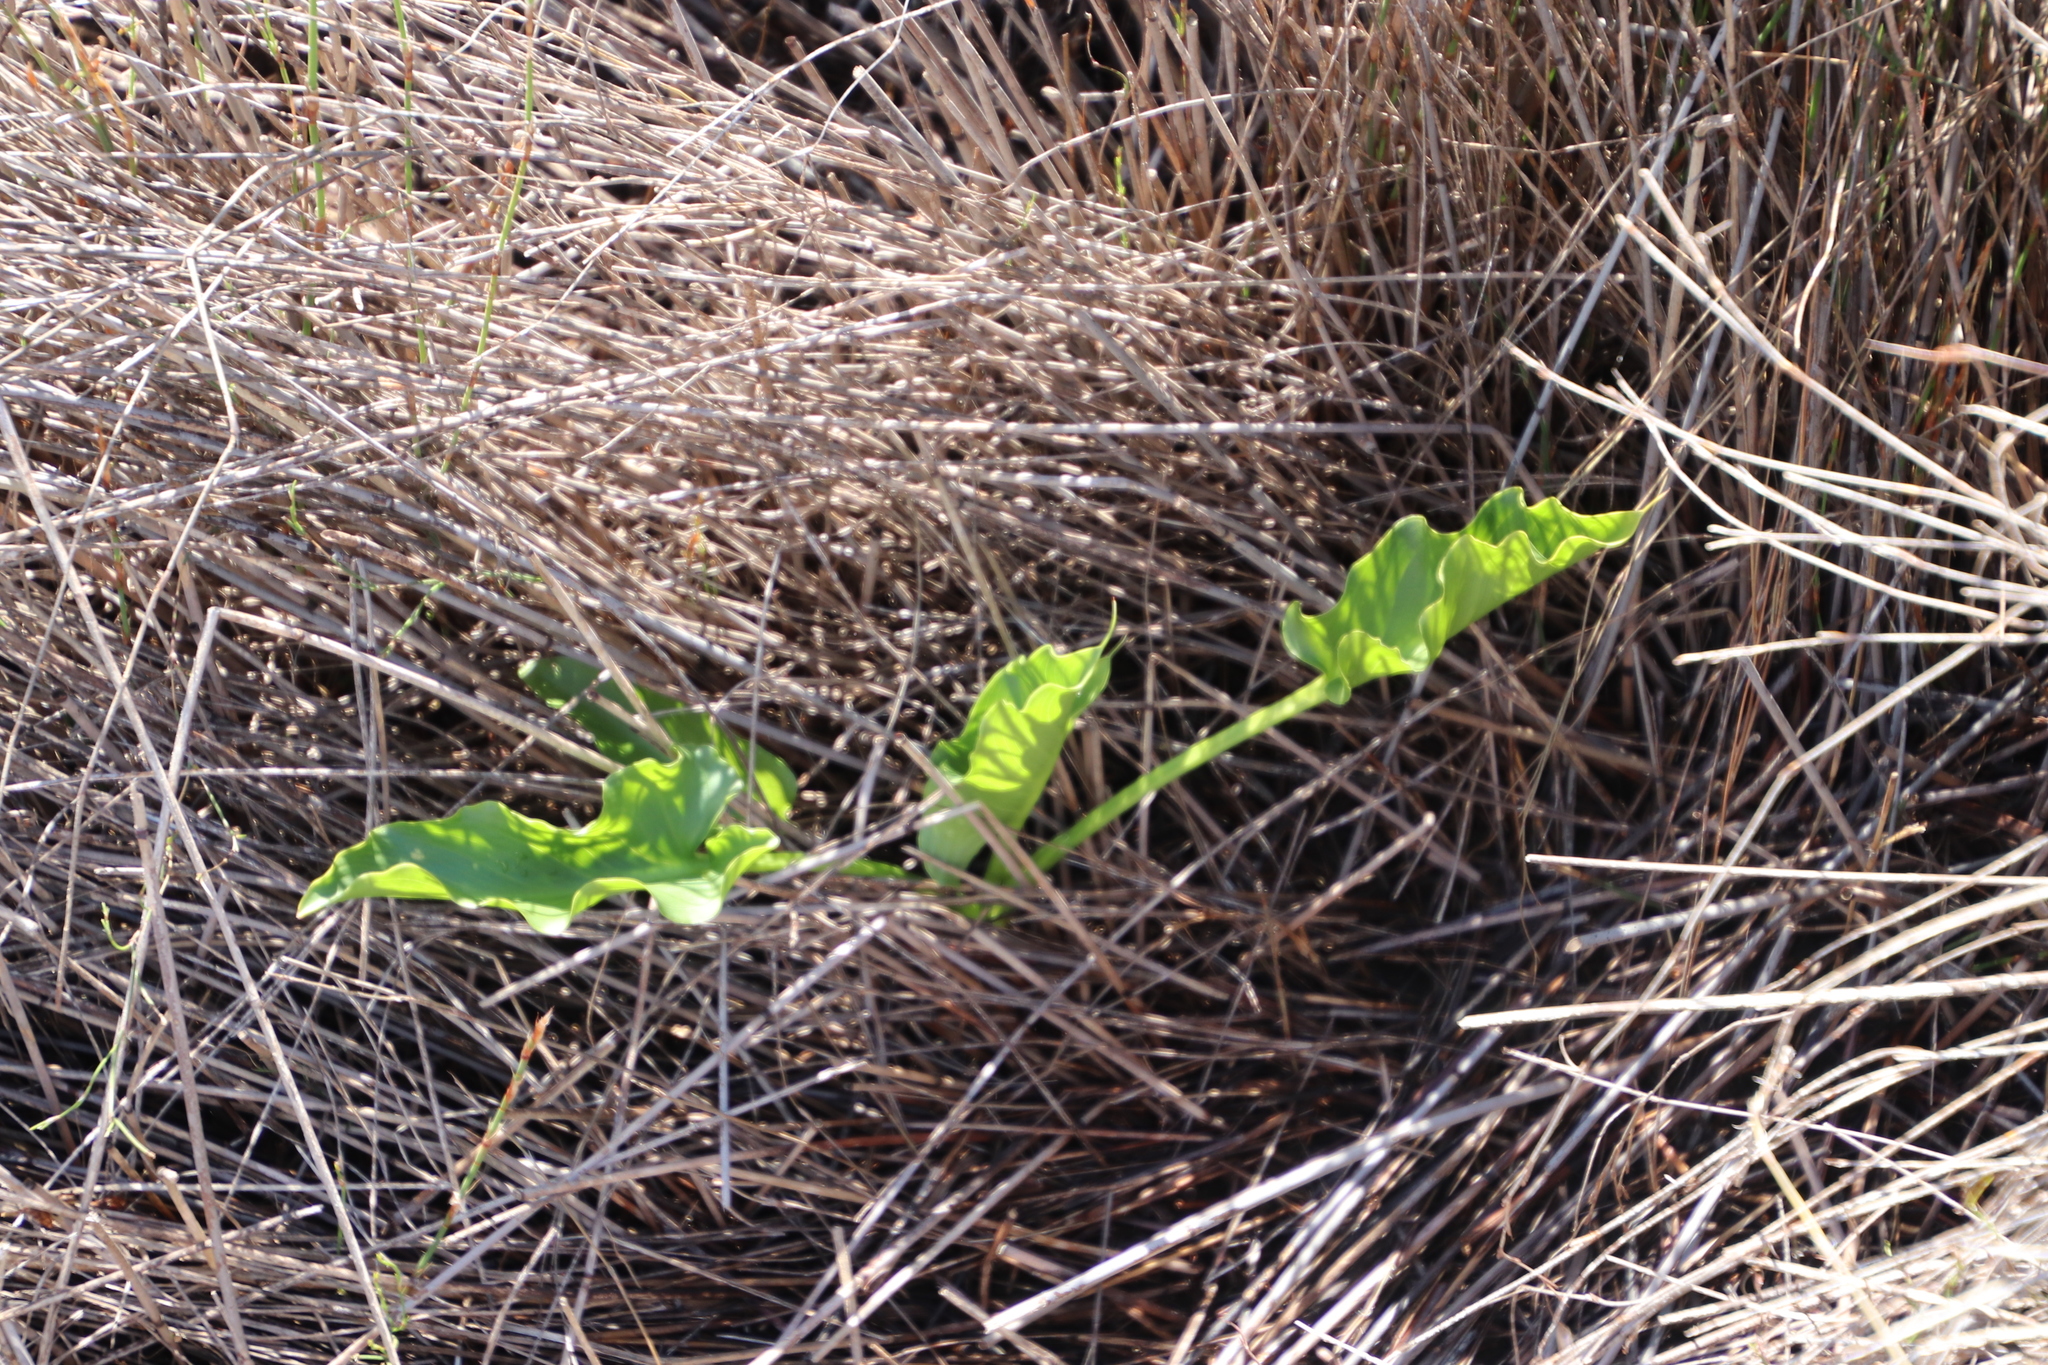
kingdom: Plantae
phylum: Tracheophyta
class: Liliopsida
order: Alismatales
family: Araceae
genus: Zantedeschia
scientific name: Zantedeschia aethiopica
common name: Altar-lily
